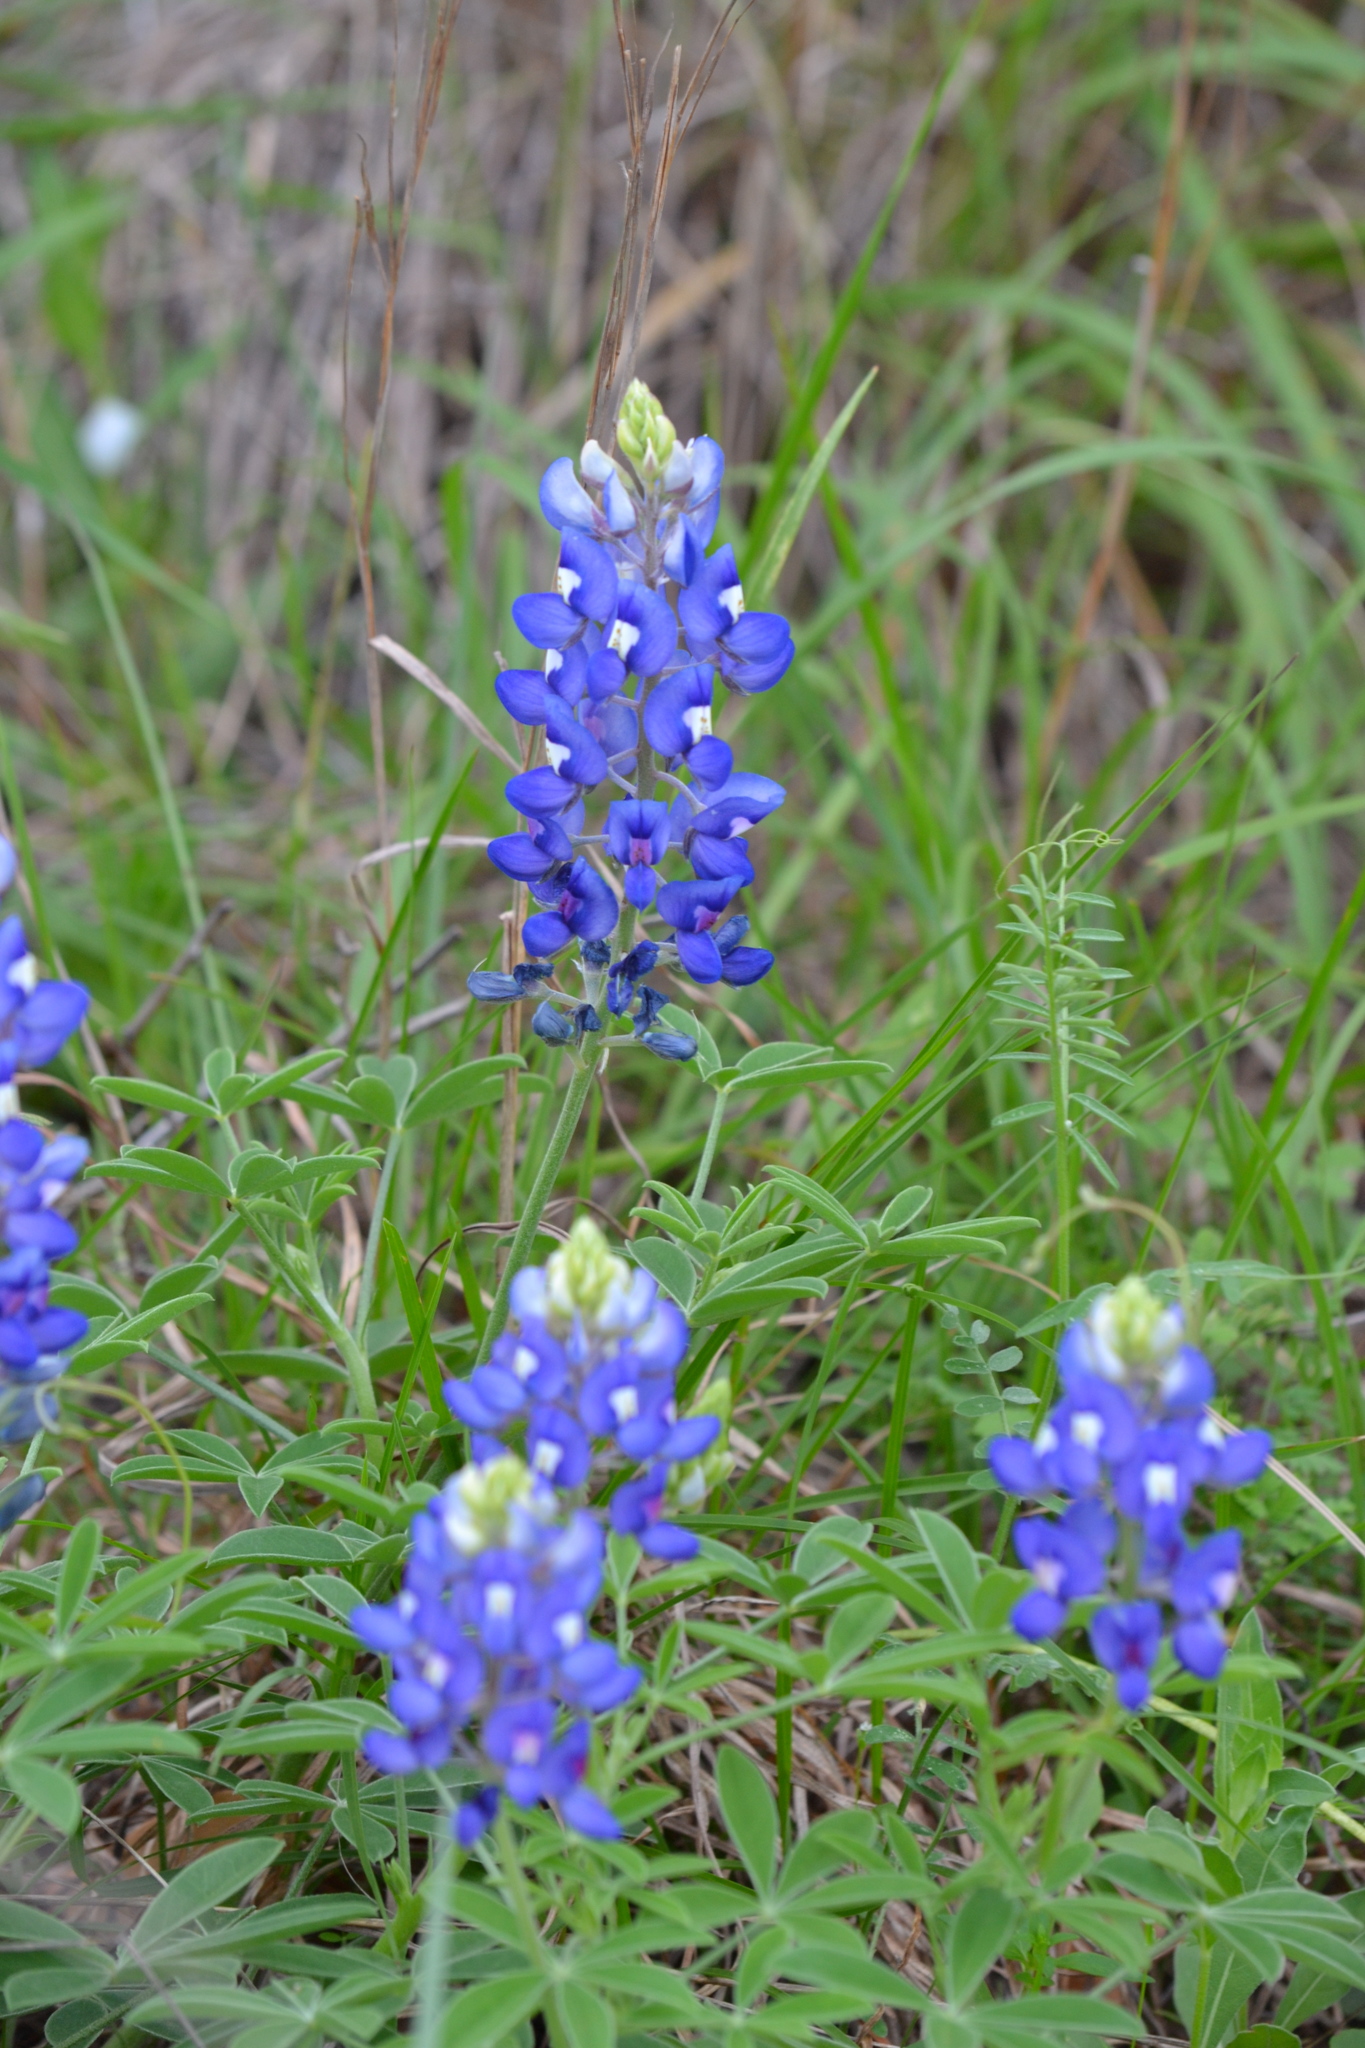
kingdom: Plantae
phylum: Tracheophyta
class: Magnoliopsida
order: Fabales
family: Fabaceae
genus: Lupinus
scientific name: Lupinus texensis
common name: Texas bluebonnet
